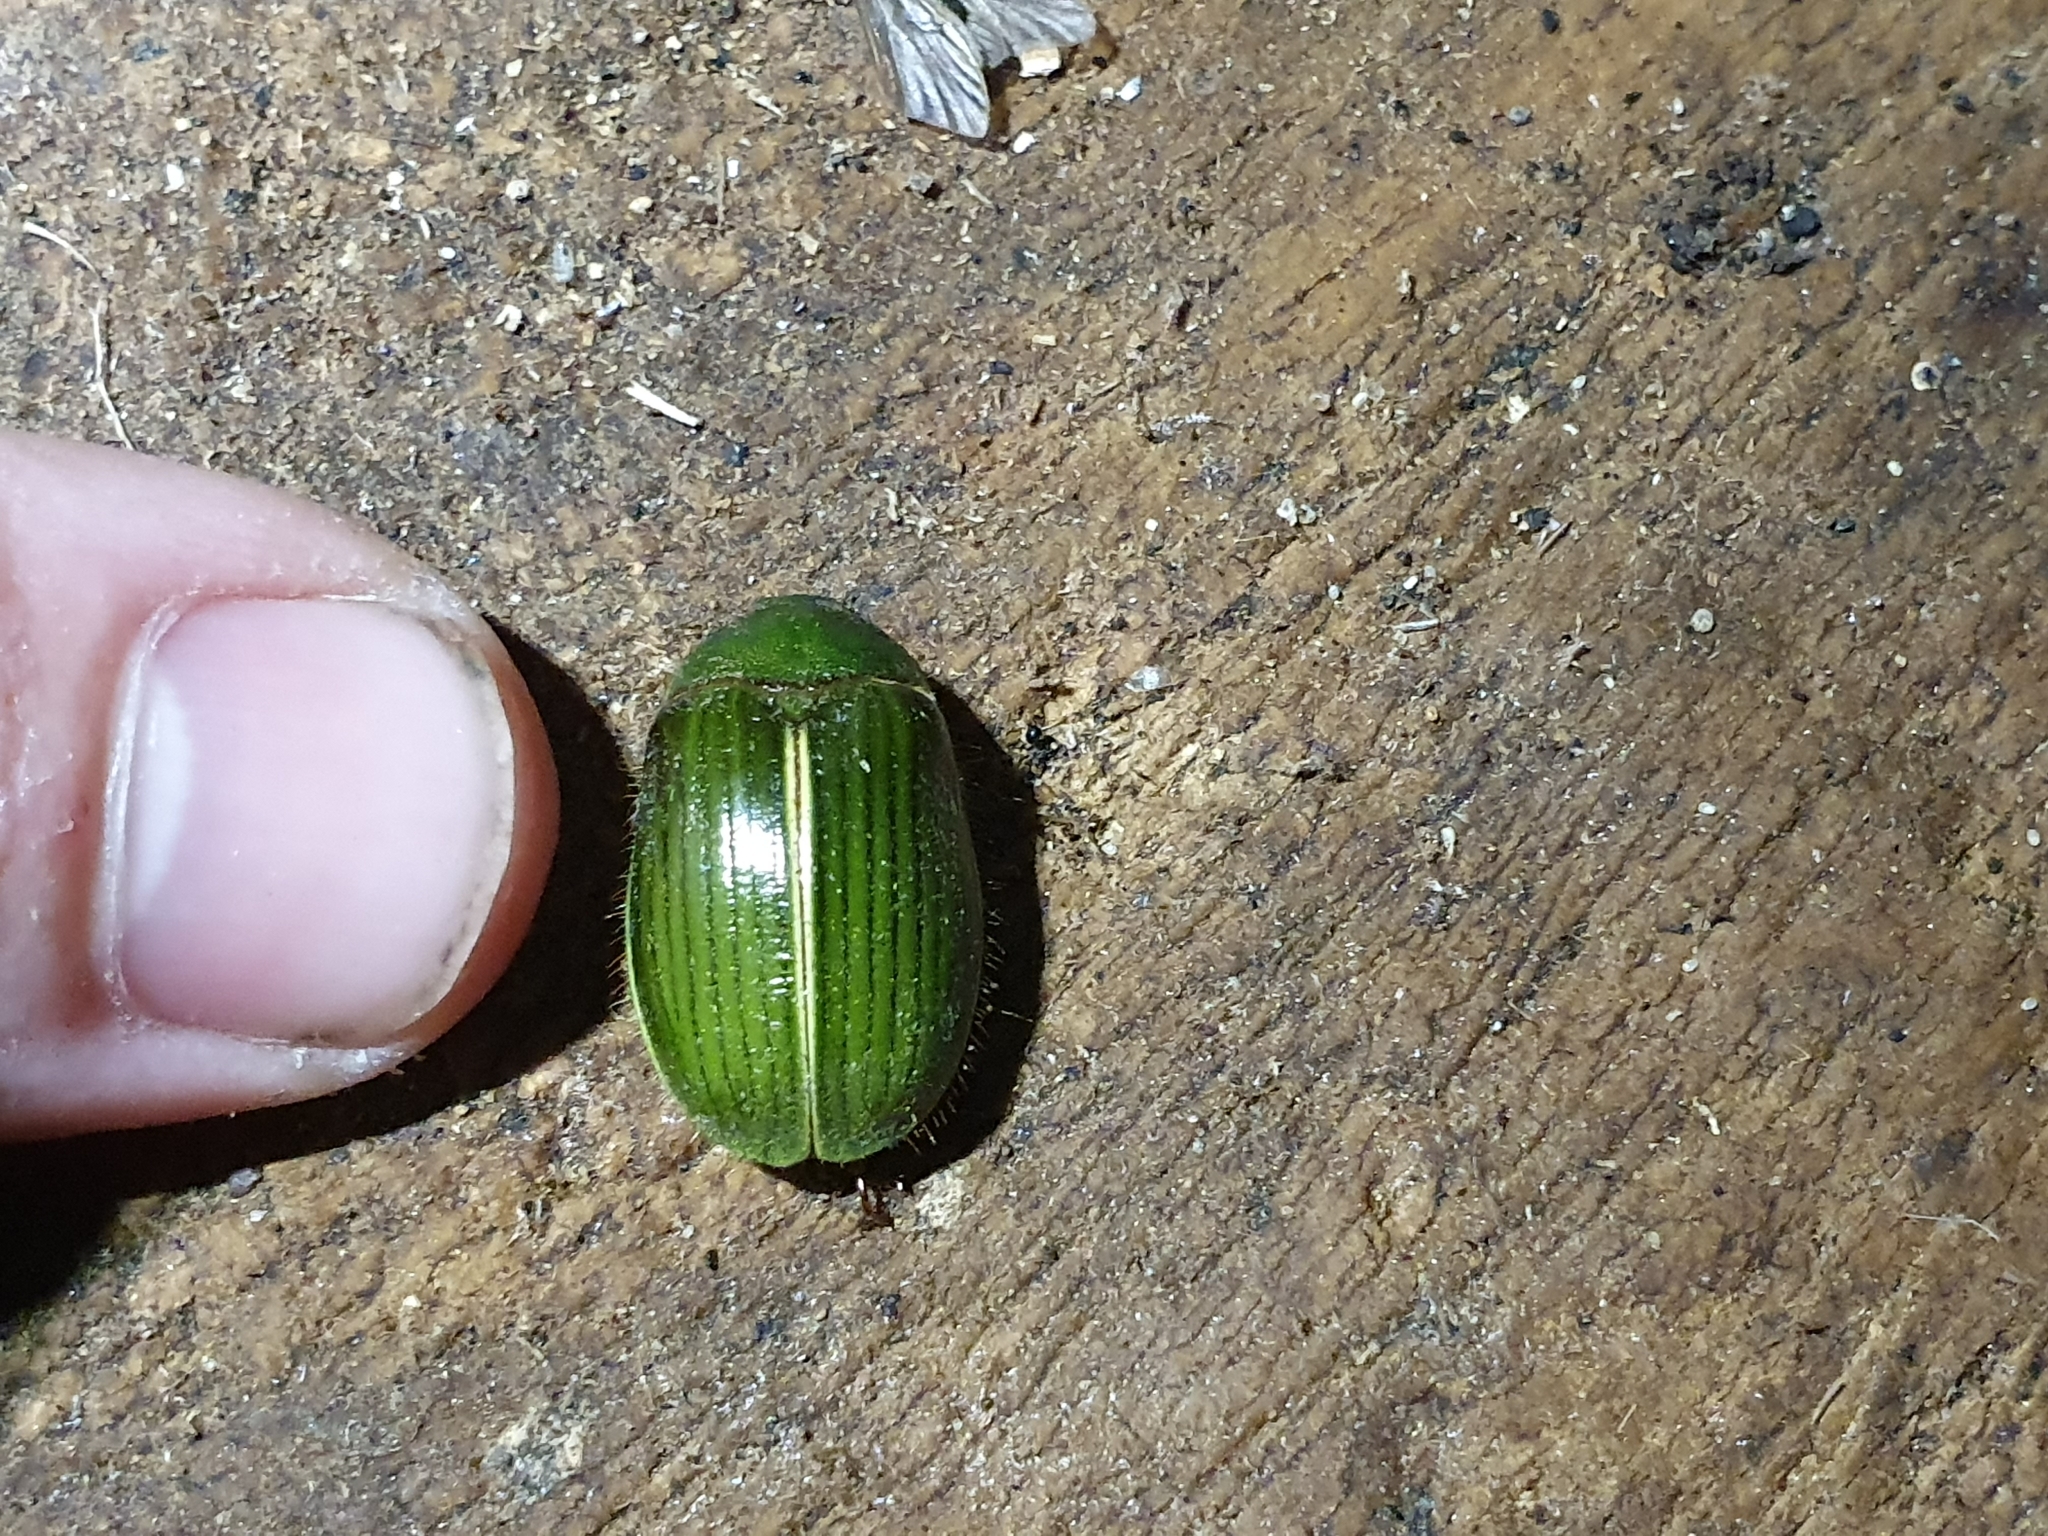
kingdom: Animalia
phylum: Arthropoda
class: Insecta
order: Coleoptera
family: Scarabaeidae
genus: Stethaspis
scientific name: Stethaspis suturalis
